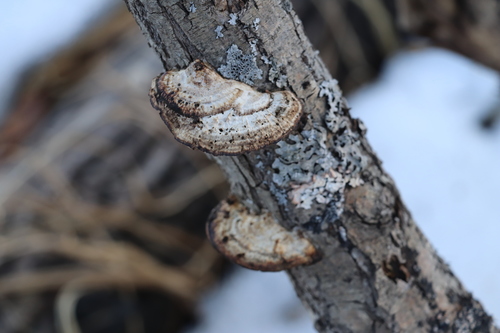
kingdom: Fungi
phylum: Basidiomycota
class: Agaricomycetes
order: Polyporales
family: Polyporaceae
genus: Daedaleopsis
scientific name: Daedaleopsis confragosa
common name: Blushing bracket
